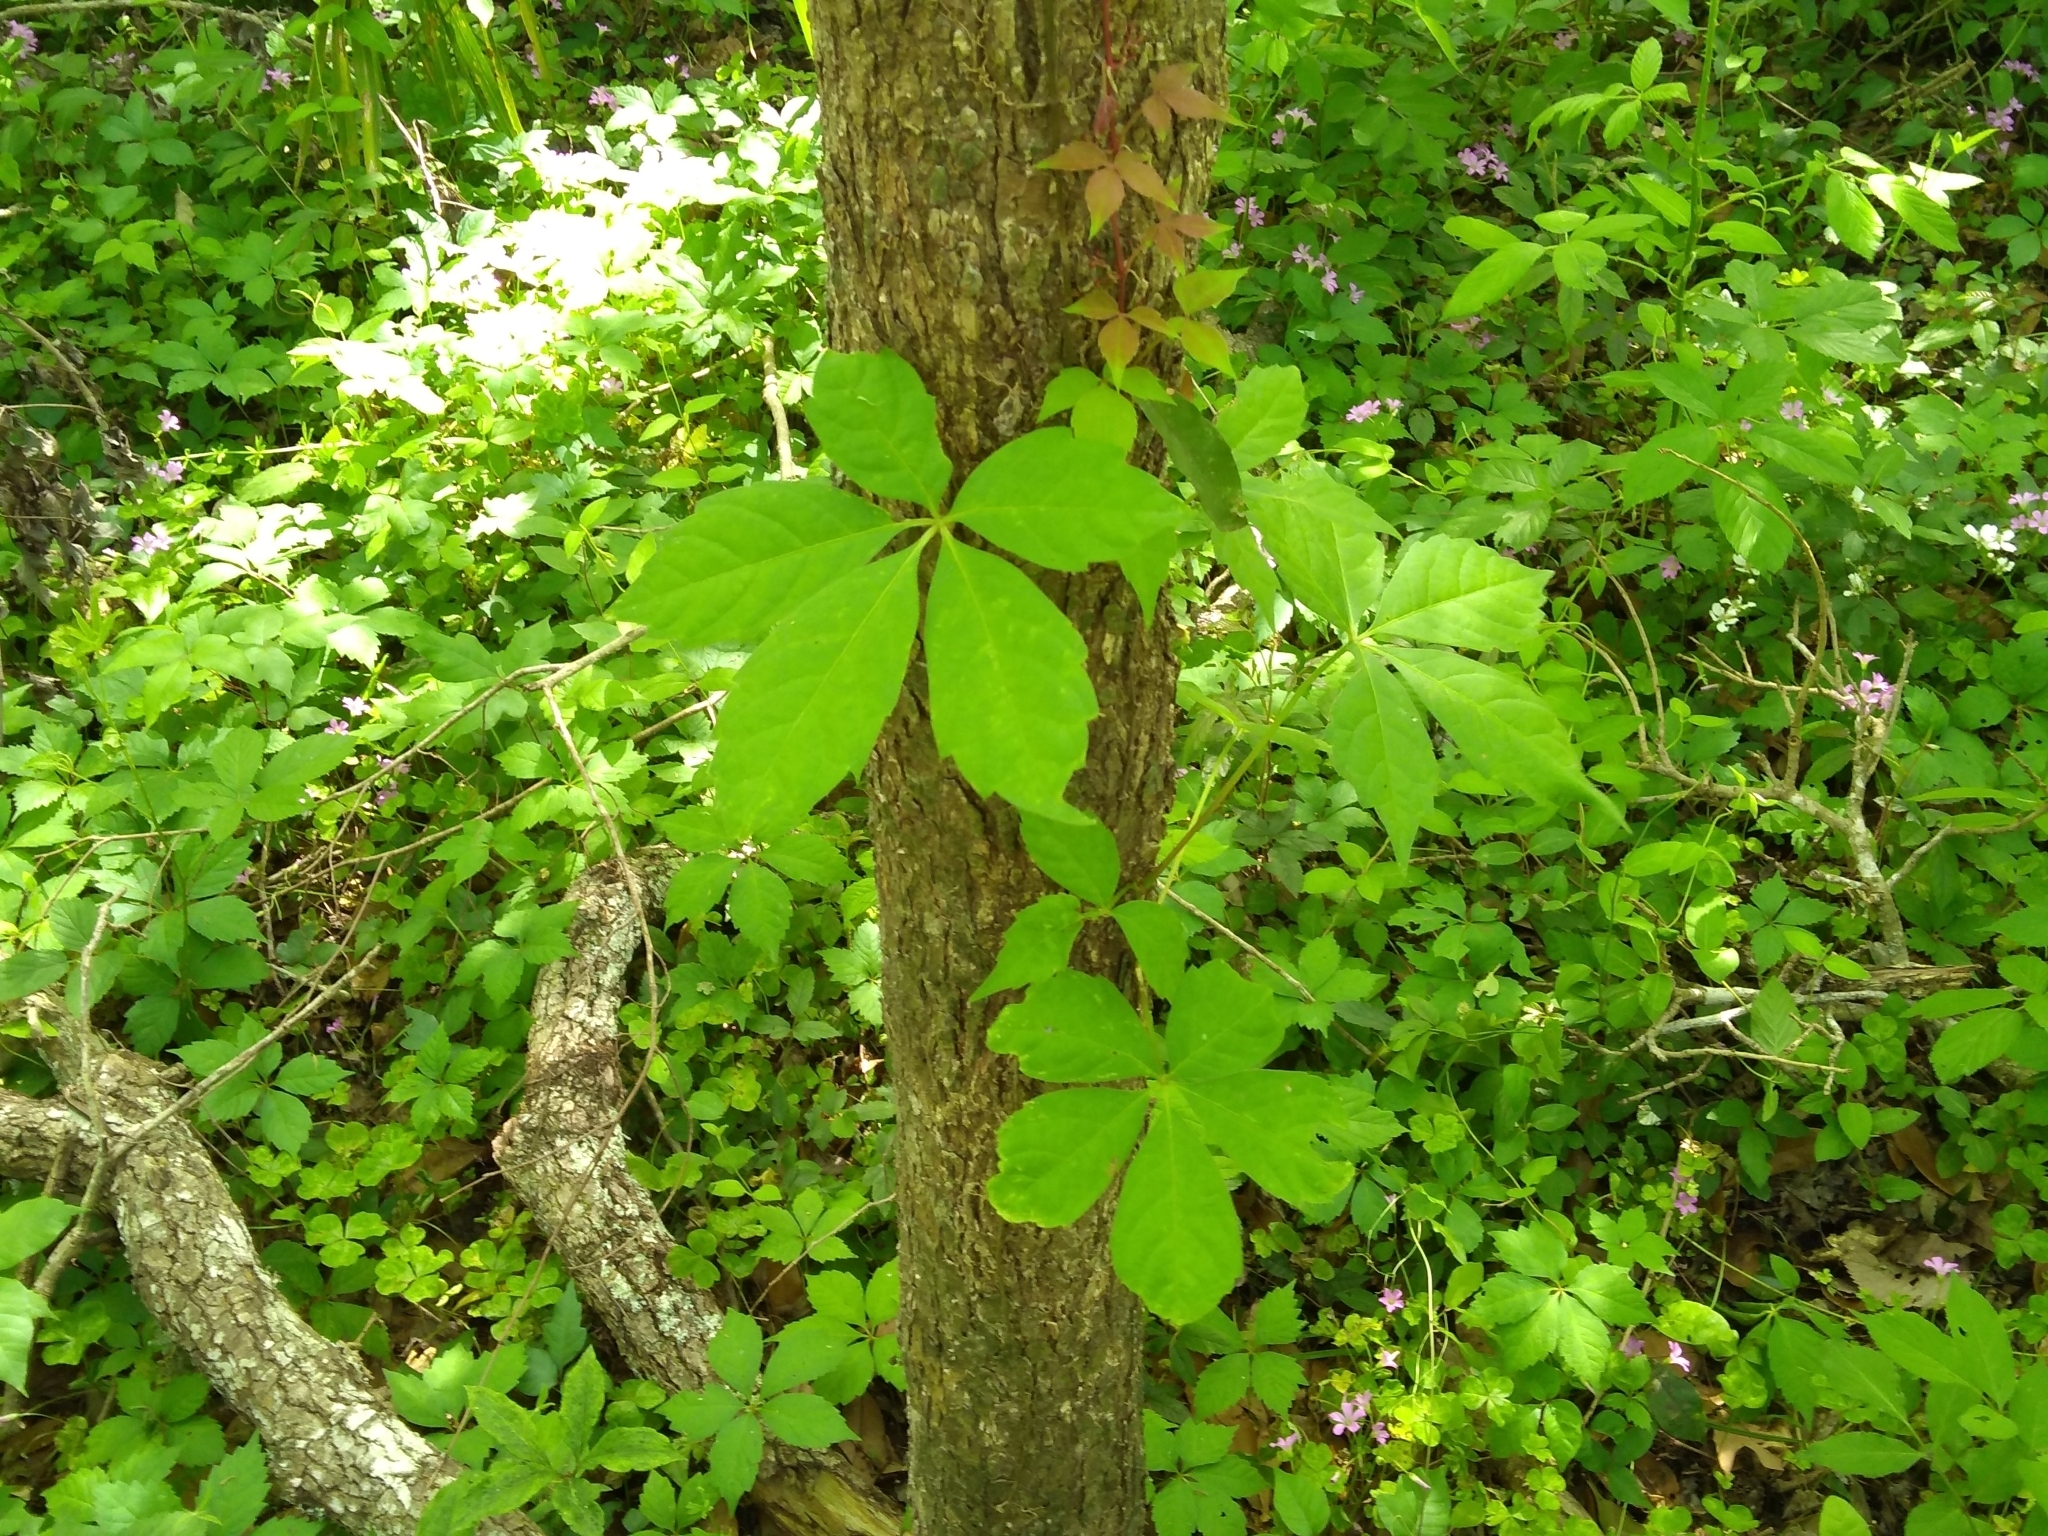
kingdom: Plantae
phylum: Tracheophyta
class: Magnoliopsida
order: Vitales
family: Vitaceae
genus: Parthenocissus
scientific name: Parthenocissus quinquefolia
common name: Virginia-creeper
